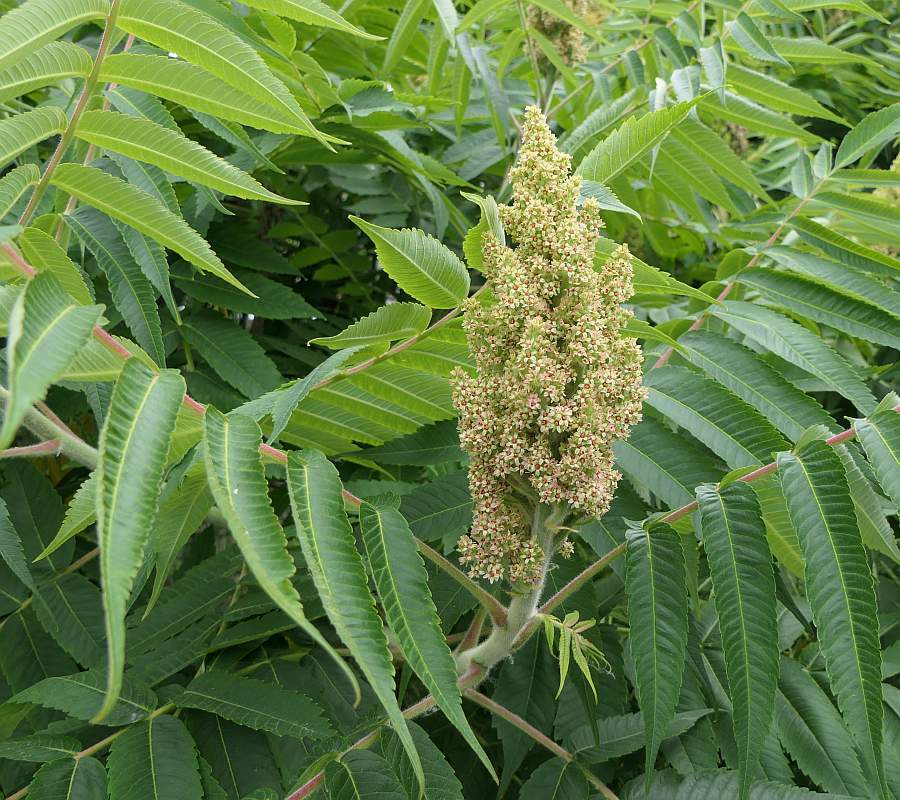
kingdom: Plantae
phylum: Tracheophyta
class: Magnoliopsida
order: Sapindales
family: Anacardiaceae
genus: Rhus
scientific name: Rhus typhina
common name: Staghorn sumac
